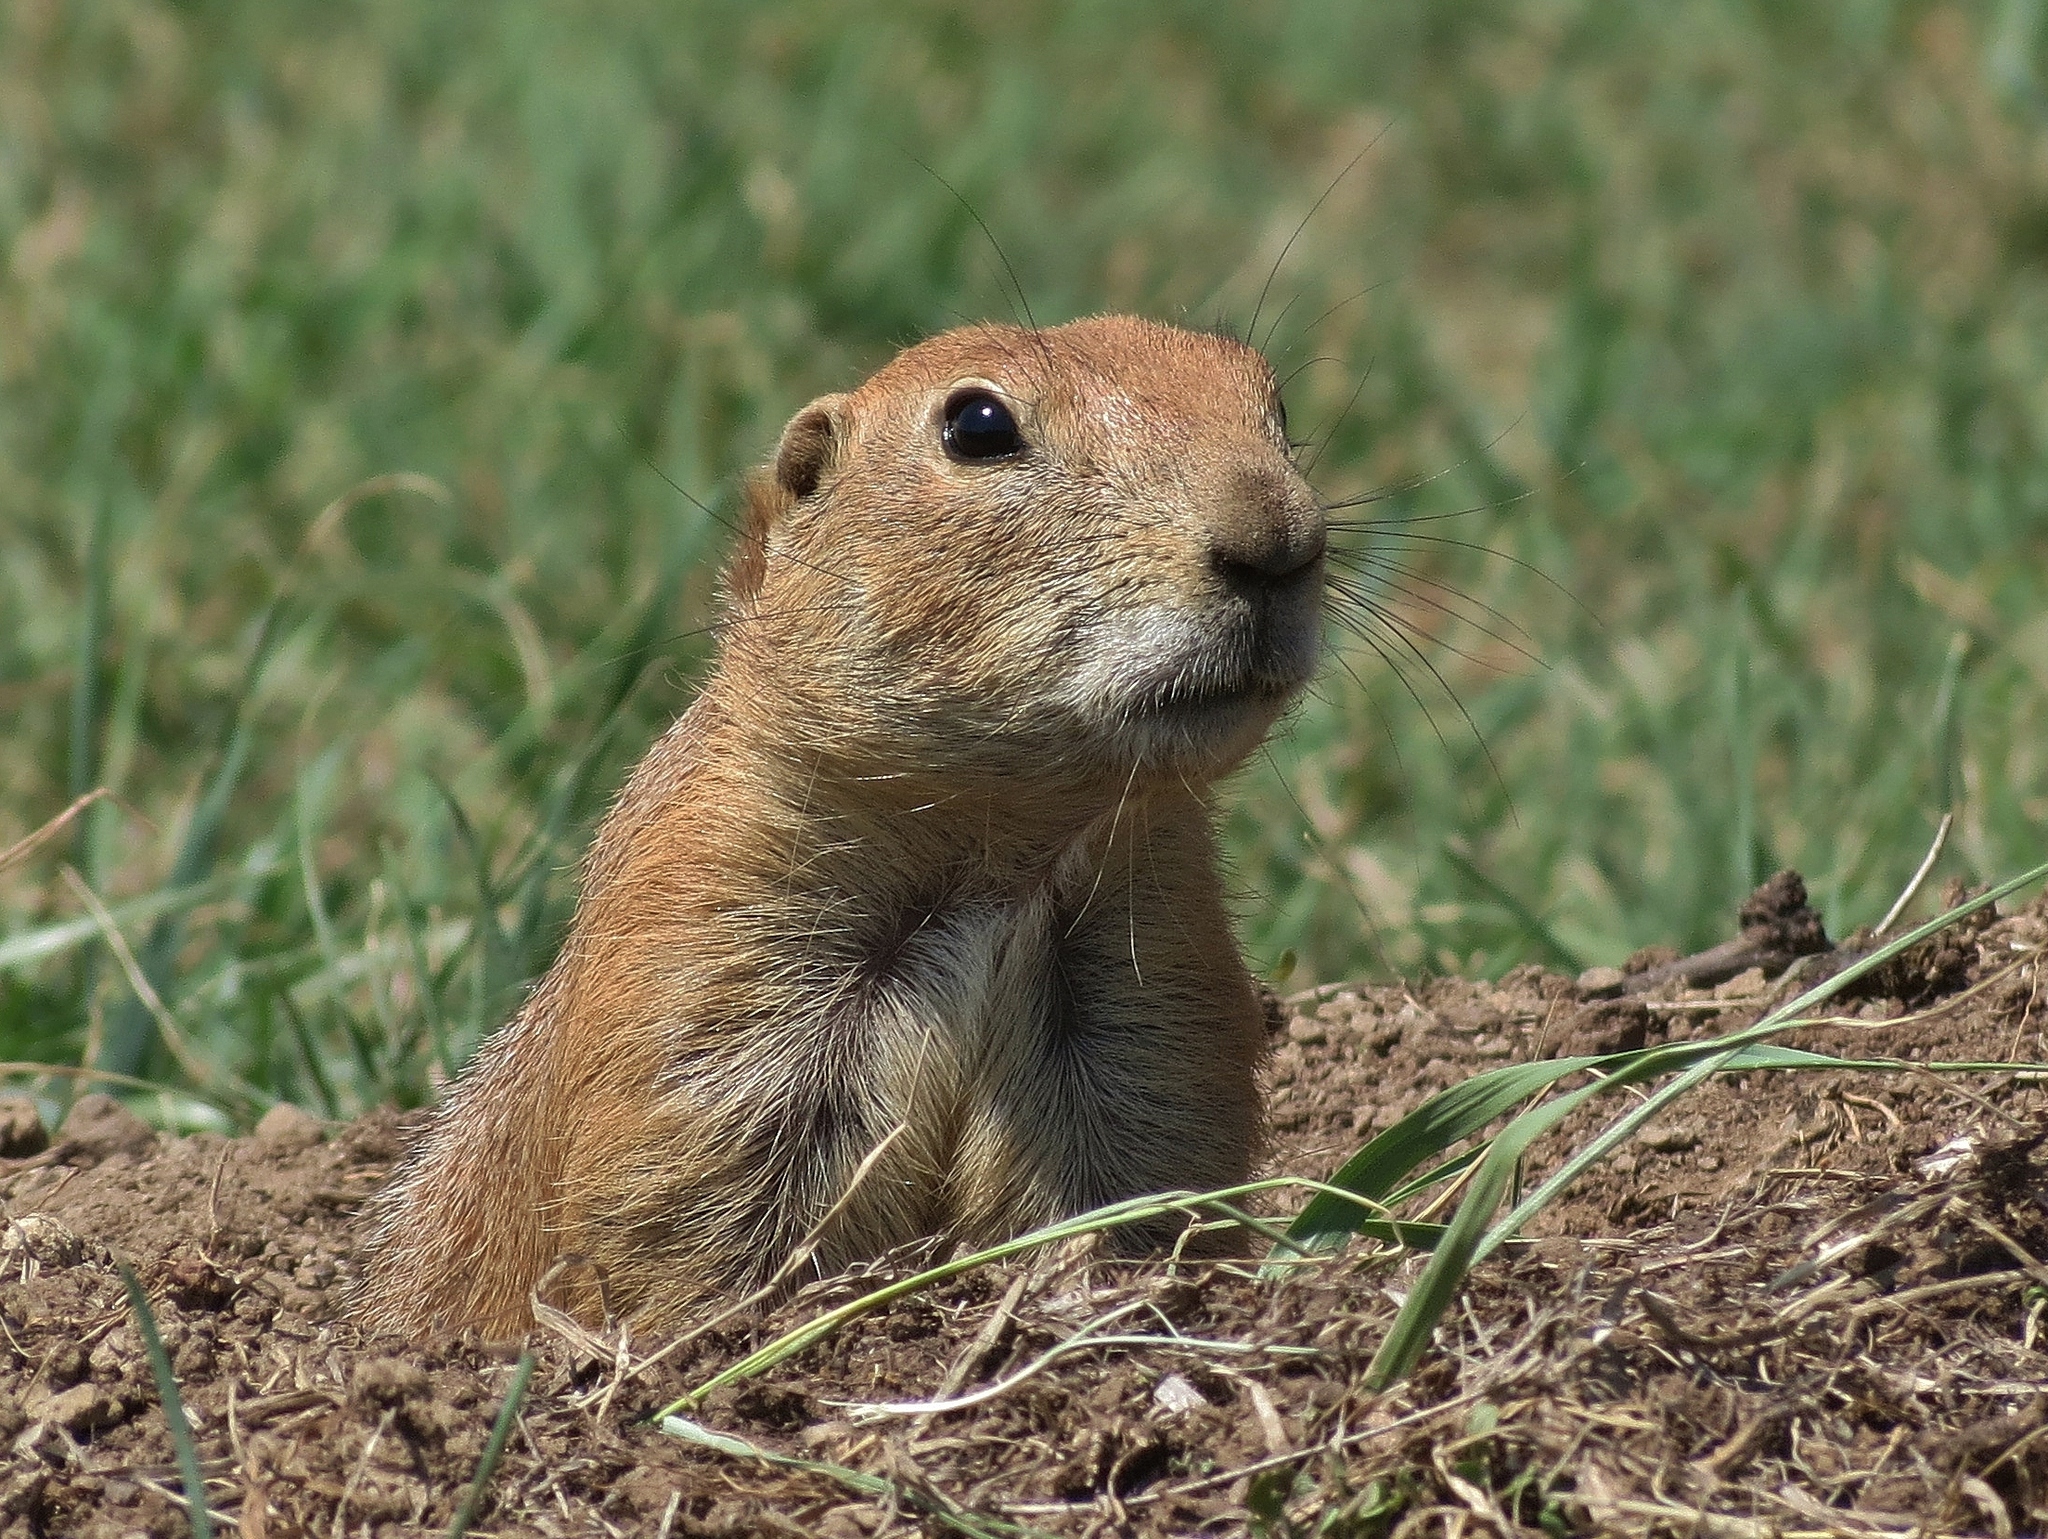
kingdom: Animalia
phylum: Chordata
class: Mammalia
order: Rodentia
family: Sciuridae
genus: Cynomys
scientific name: Cynomys ludovicianus
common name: Black-tailed prairie dog
